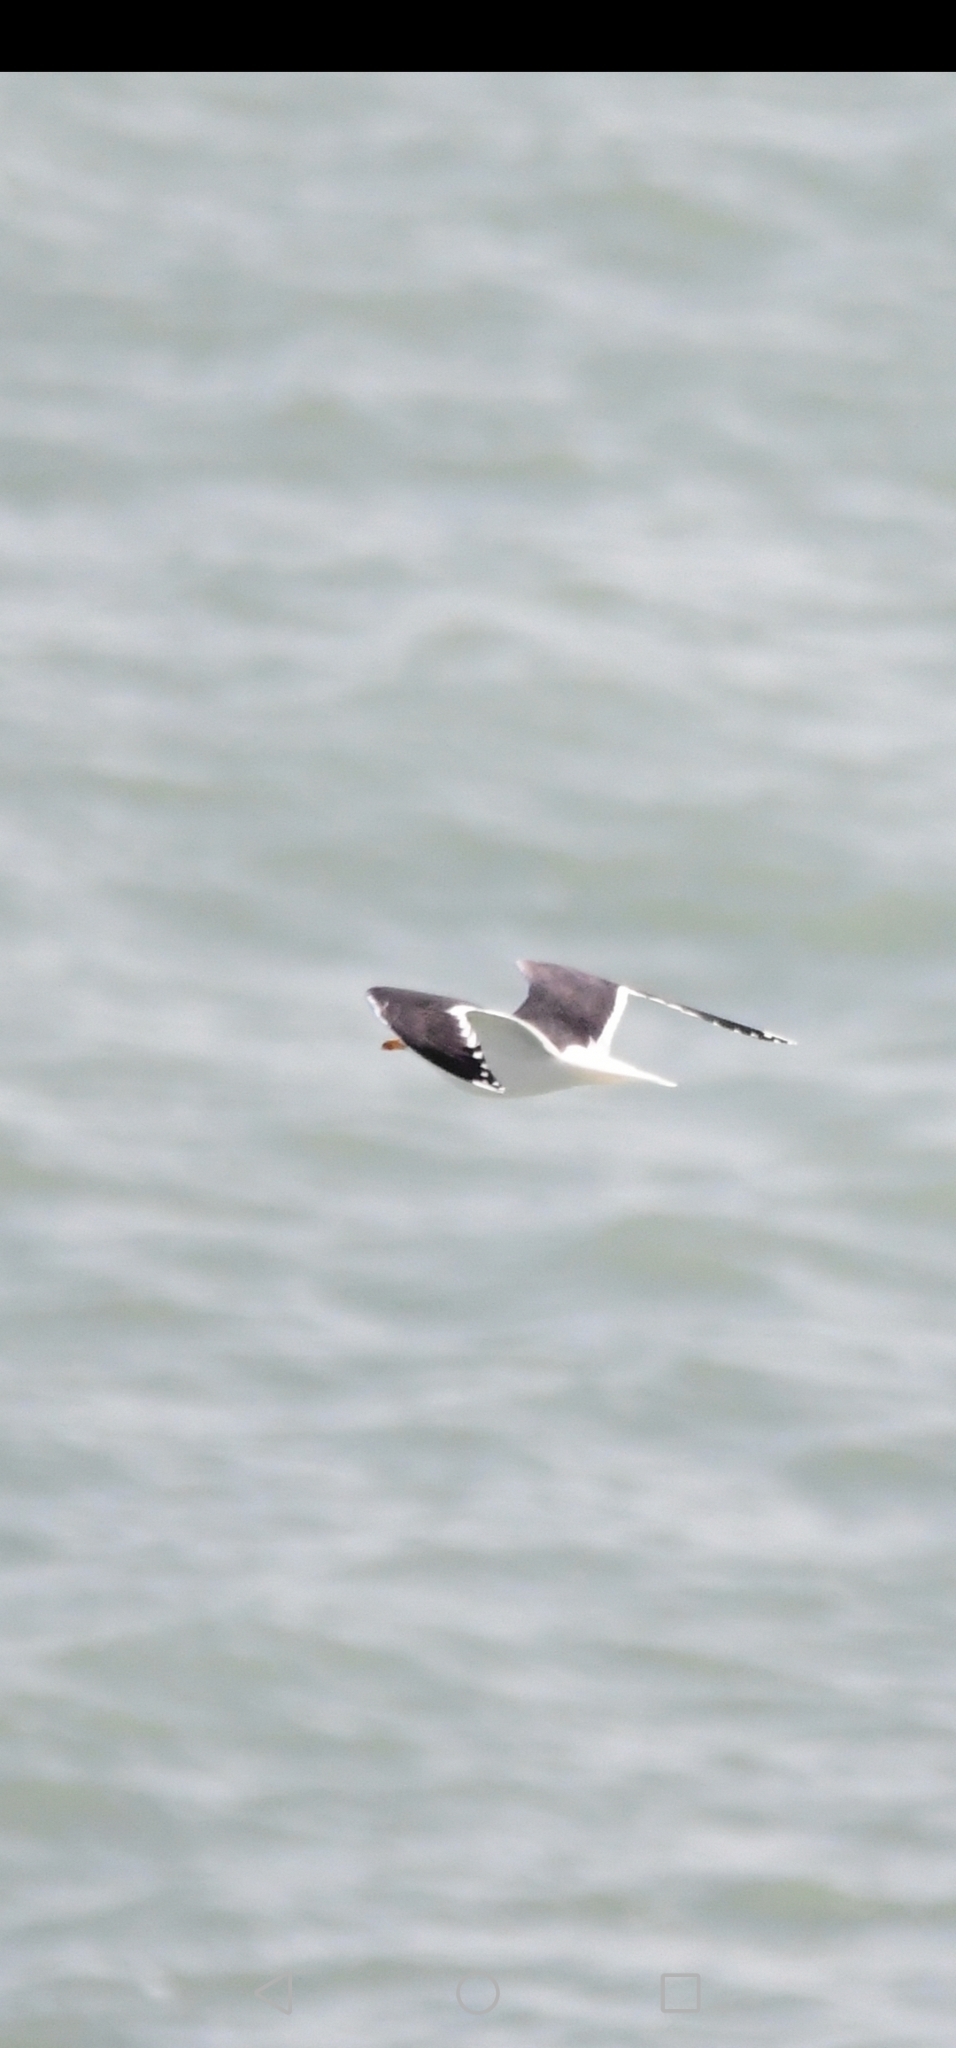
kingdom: Animalia
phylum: Chordata
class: Aves
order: Charadriiformes
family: Laridae
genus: Larus
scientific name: Larus marinus
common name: Great black-backed gull
